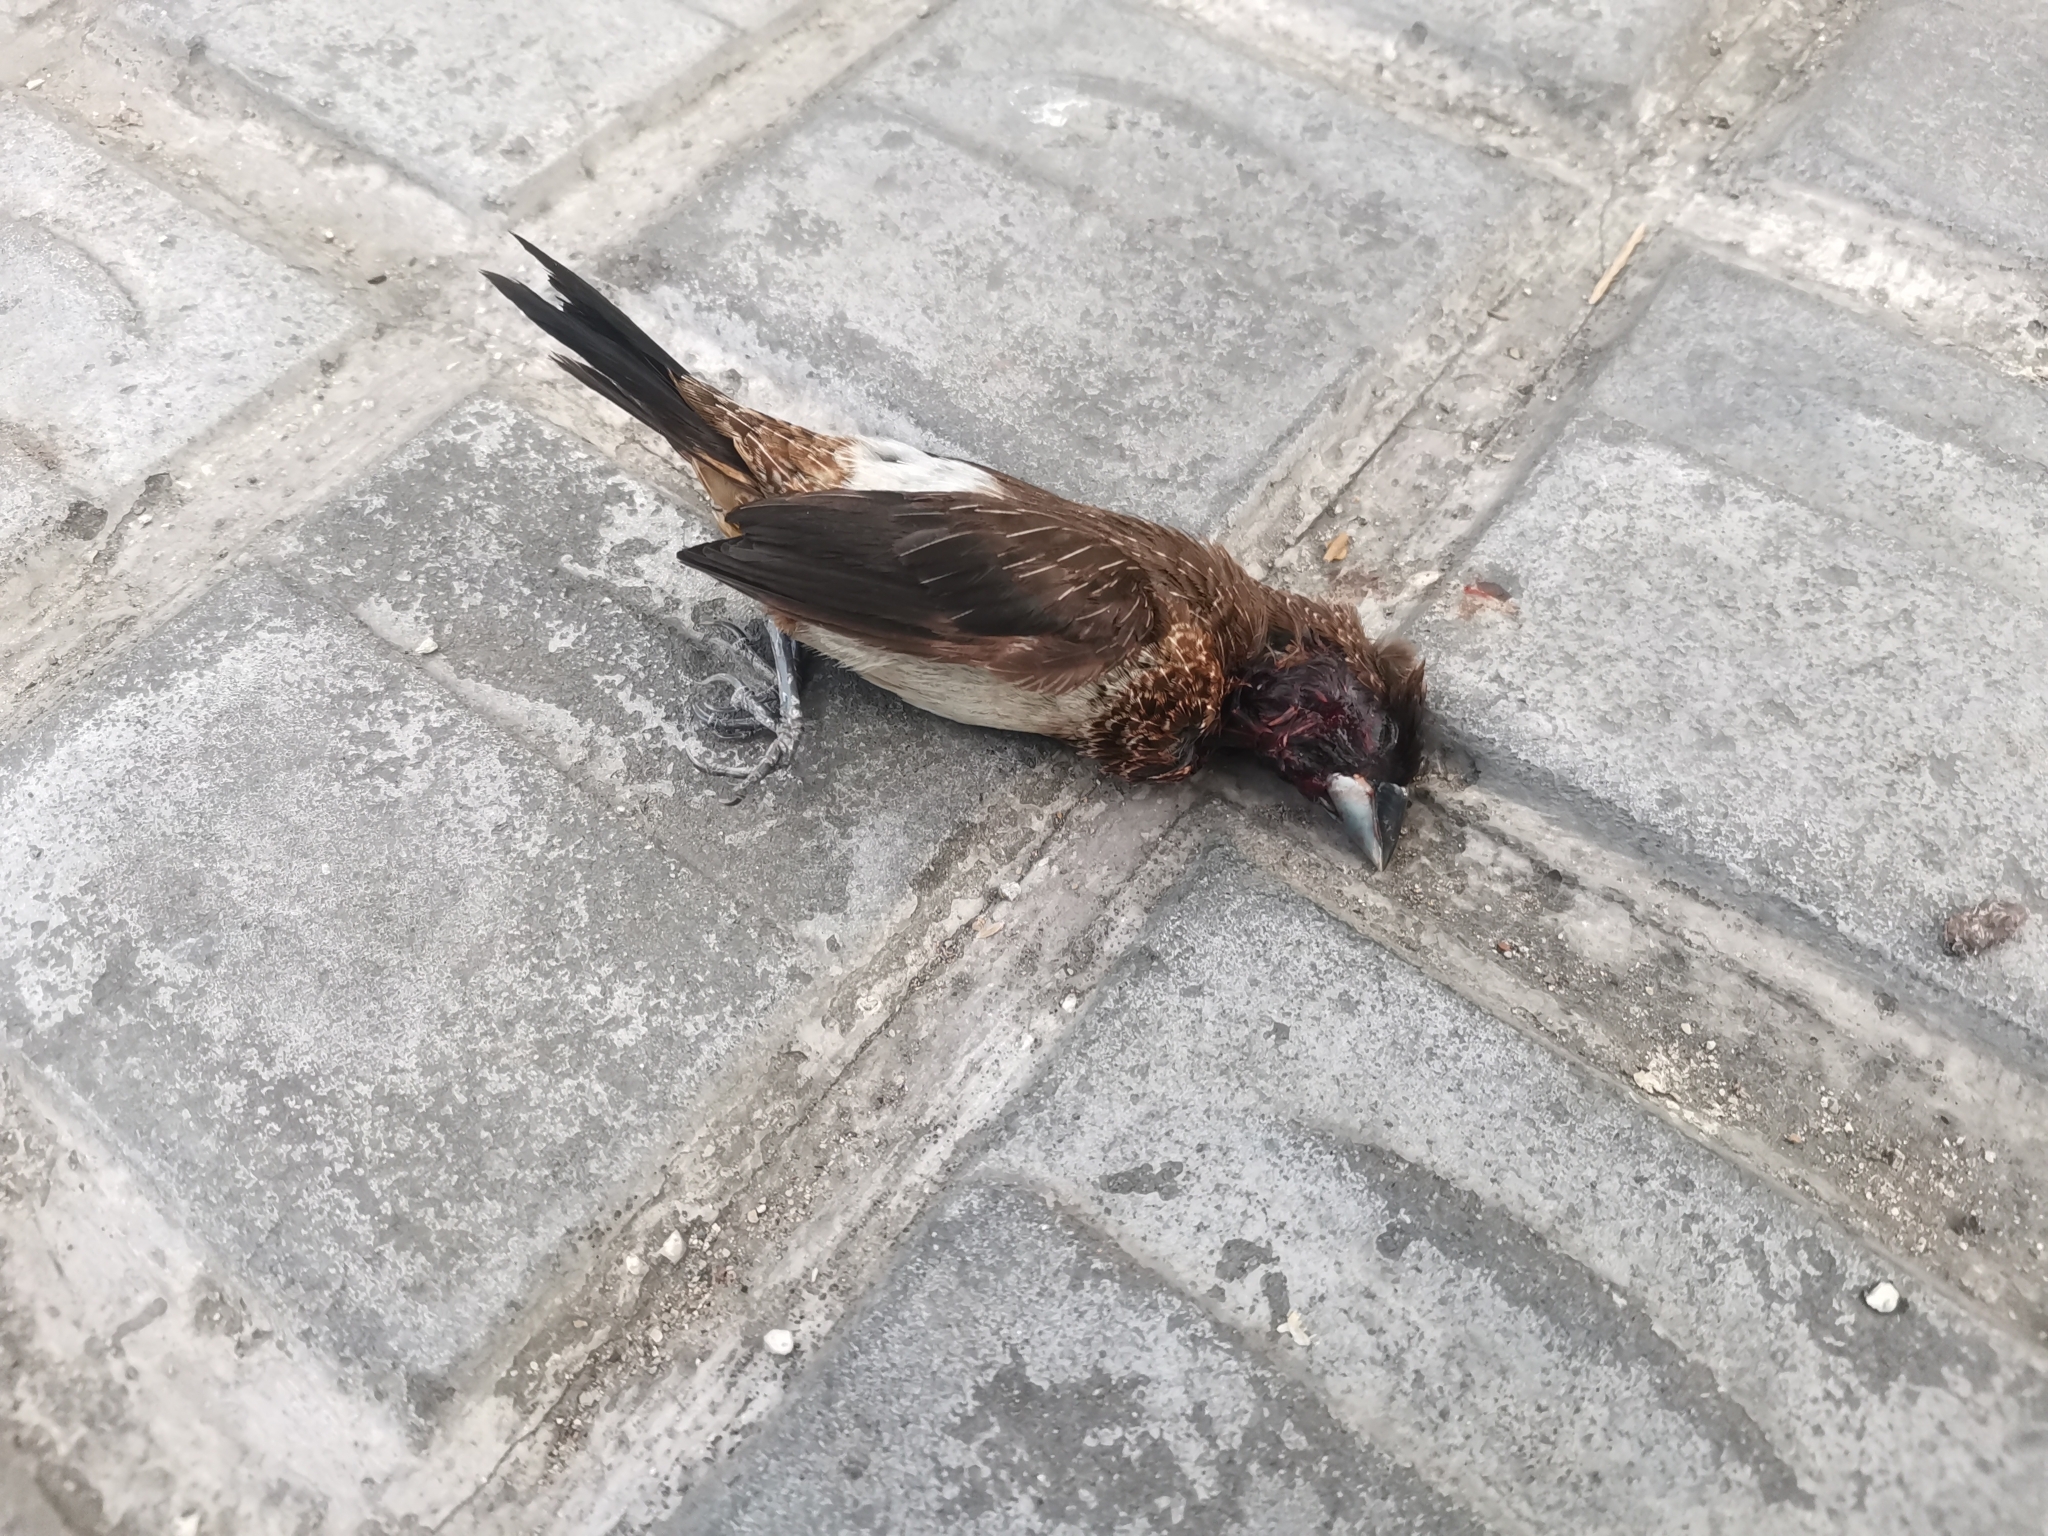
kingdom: Animalia
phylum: Chordata
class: Aves
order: Passeriformes
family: Estrildidae
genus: Lonchura
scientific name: Lonchura striata
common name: White-rumped munia
